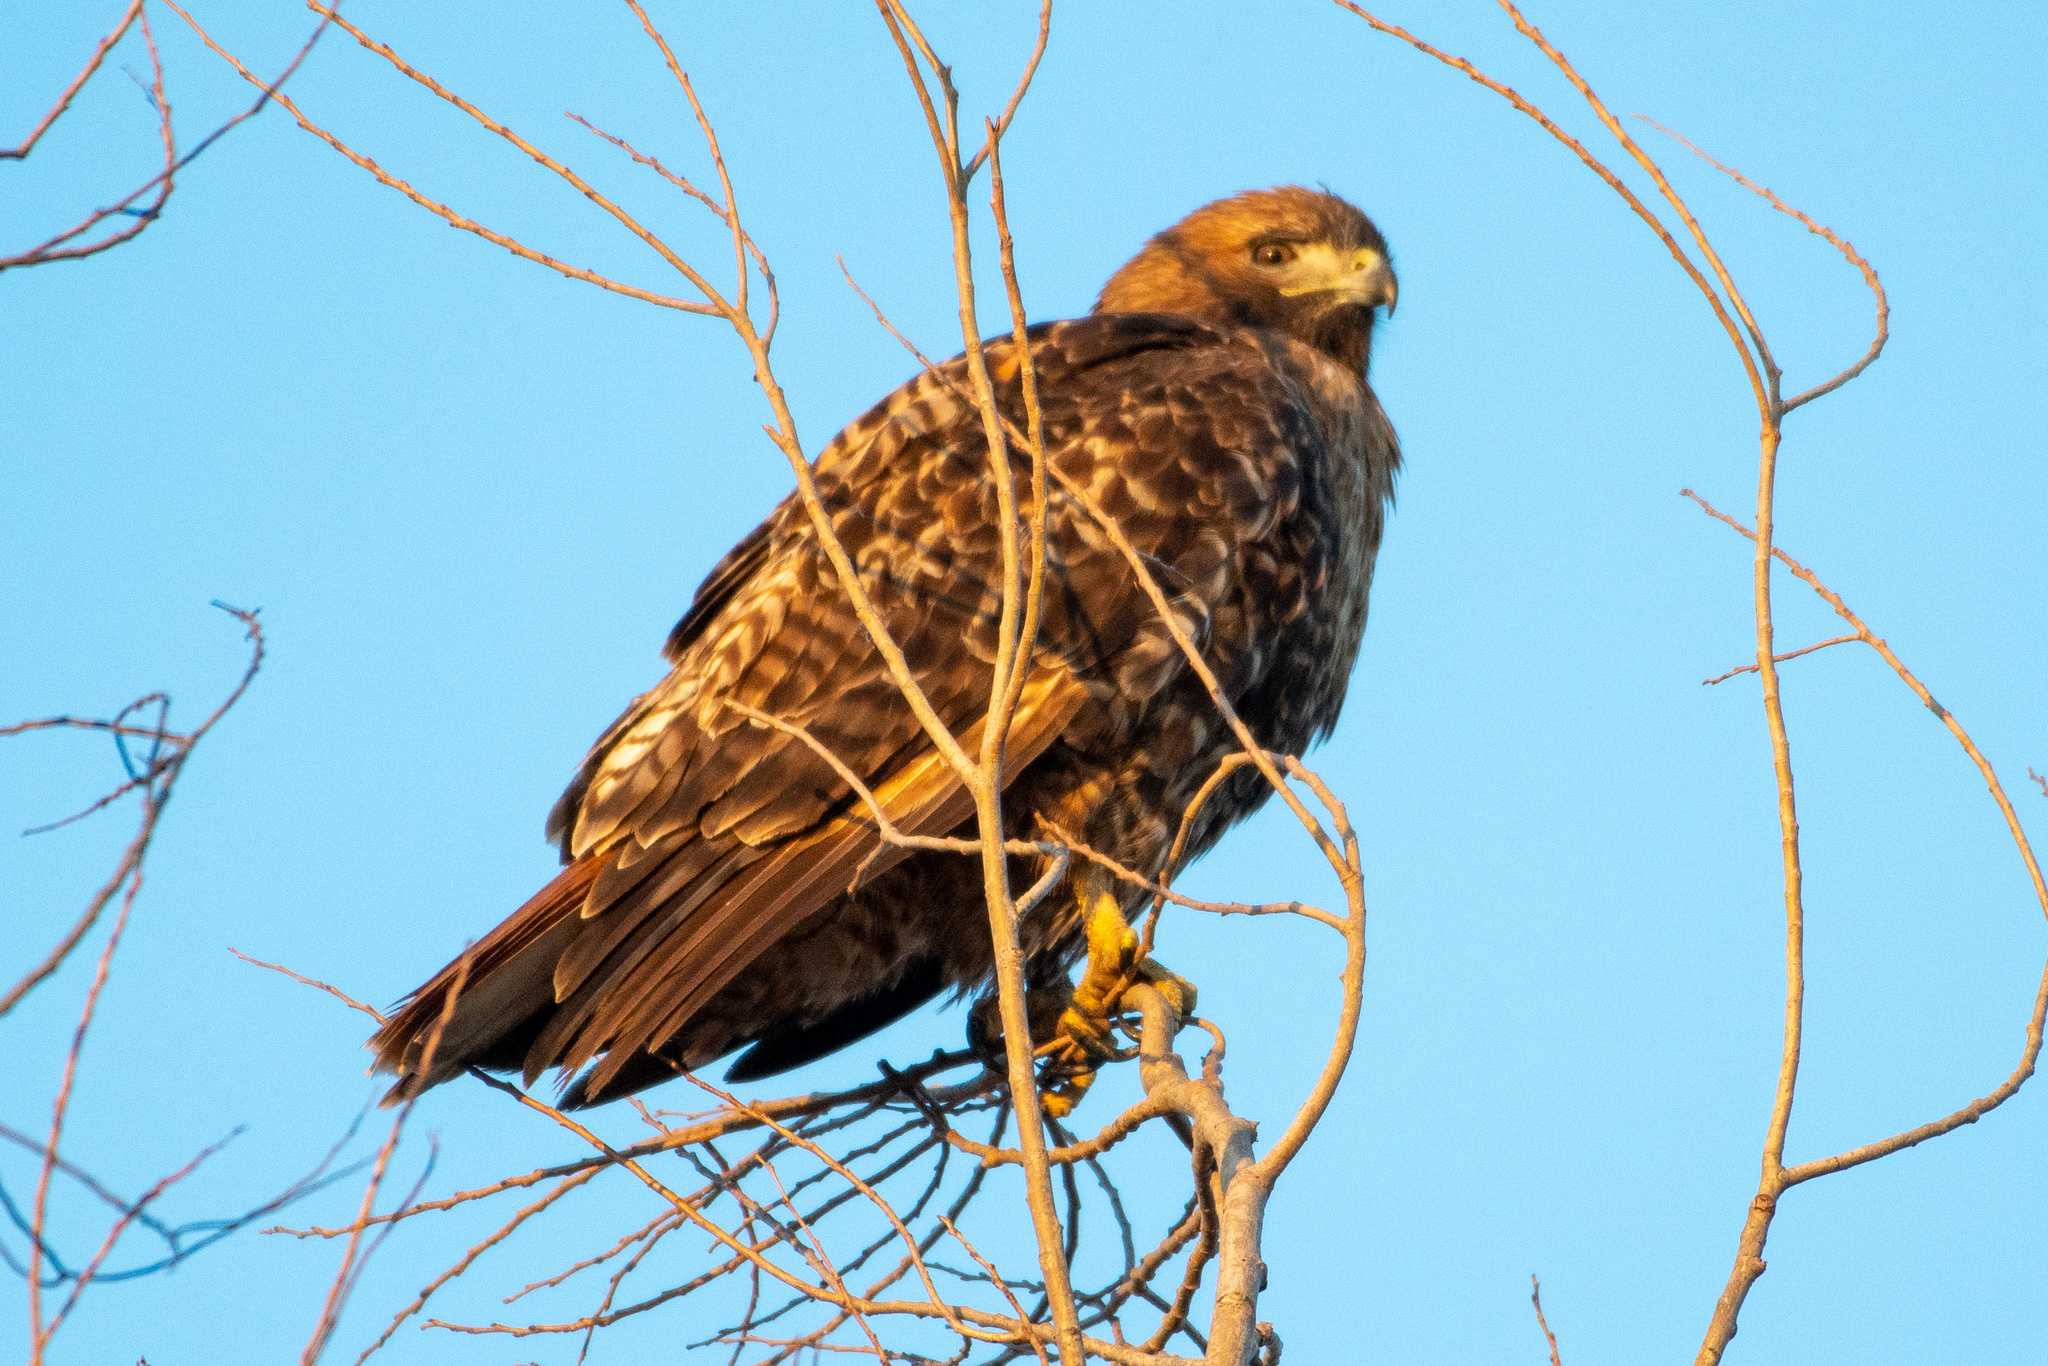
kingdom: Animalia
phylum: Chordata
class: Aves
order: Accipitriformes
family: Accipitridae
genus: Buteo
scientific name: Buteo jamaicensis
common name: Red-tailed hawk
